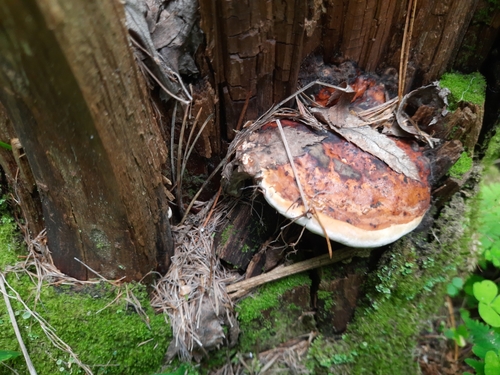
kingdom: Fungi
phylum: Basidiomycota
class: Agaricomycetes
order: Polyporales
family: Fomitopsidaceae
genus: Fomitopsis
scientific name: Fomitopsis pinicola
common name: Red-belted bracket
